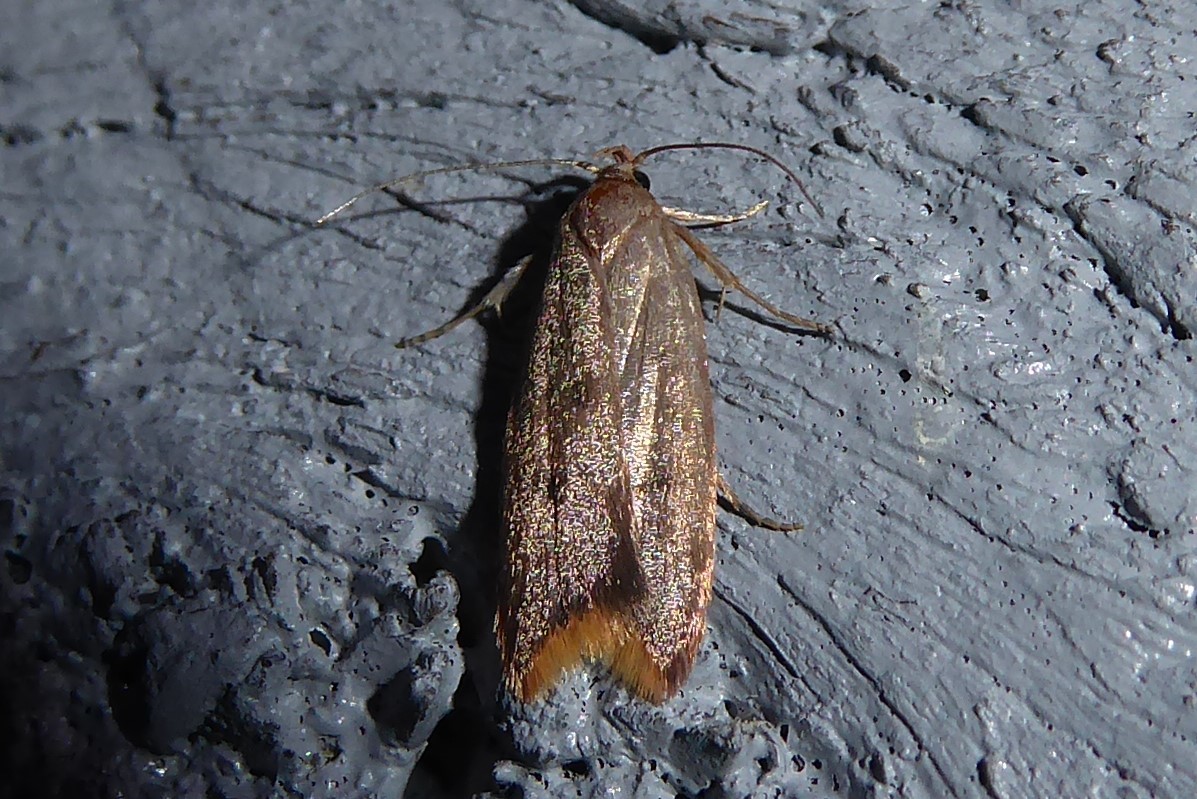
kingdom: Animalia
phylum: Arthropoda
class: Insecta
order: Lepidoptera
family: Oecophoridae
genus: Tachystola
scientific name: Tachystola acroxantha
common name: Ruddy streak
